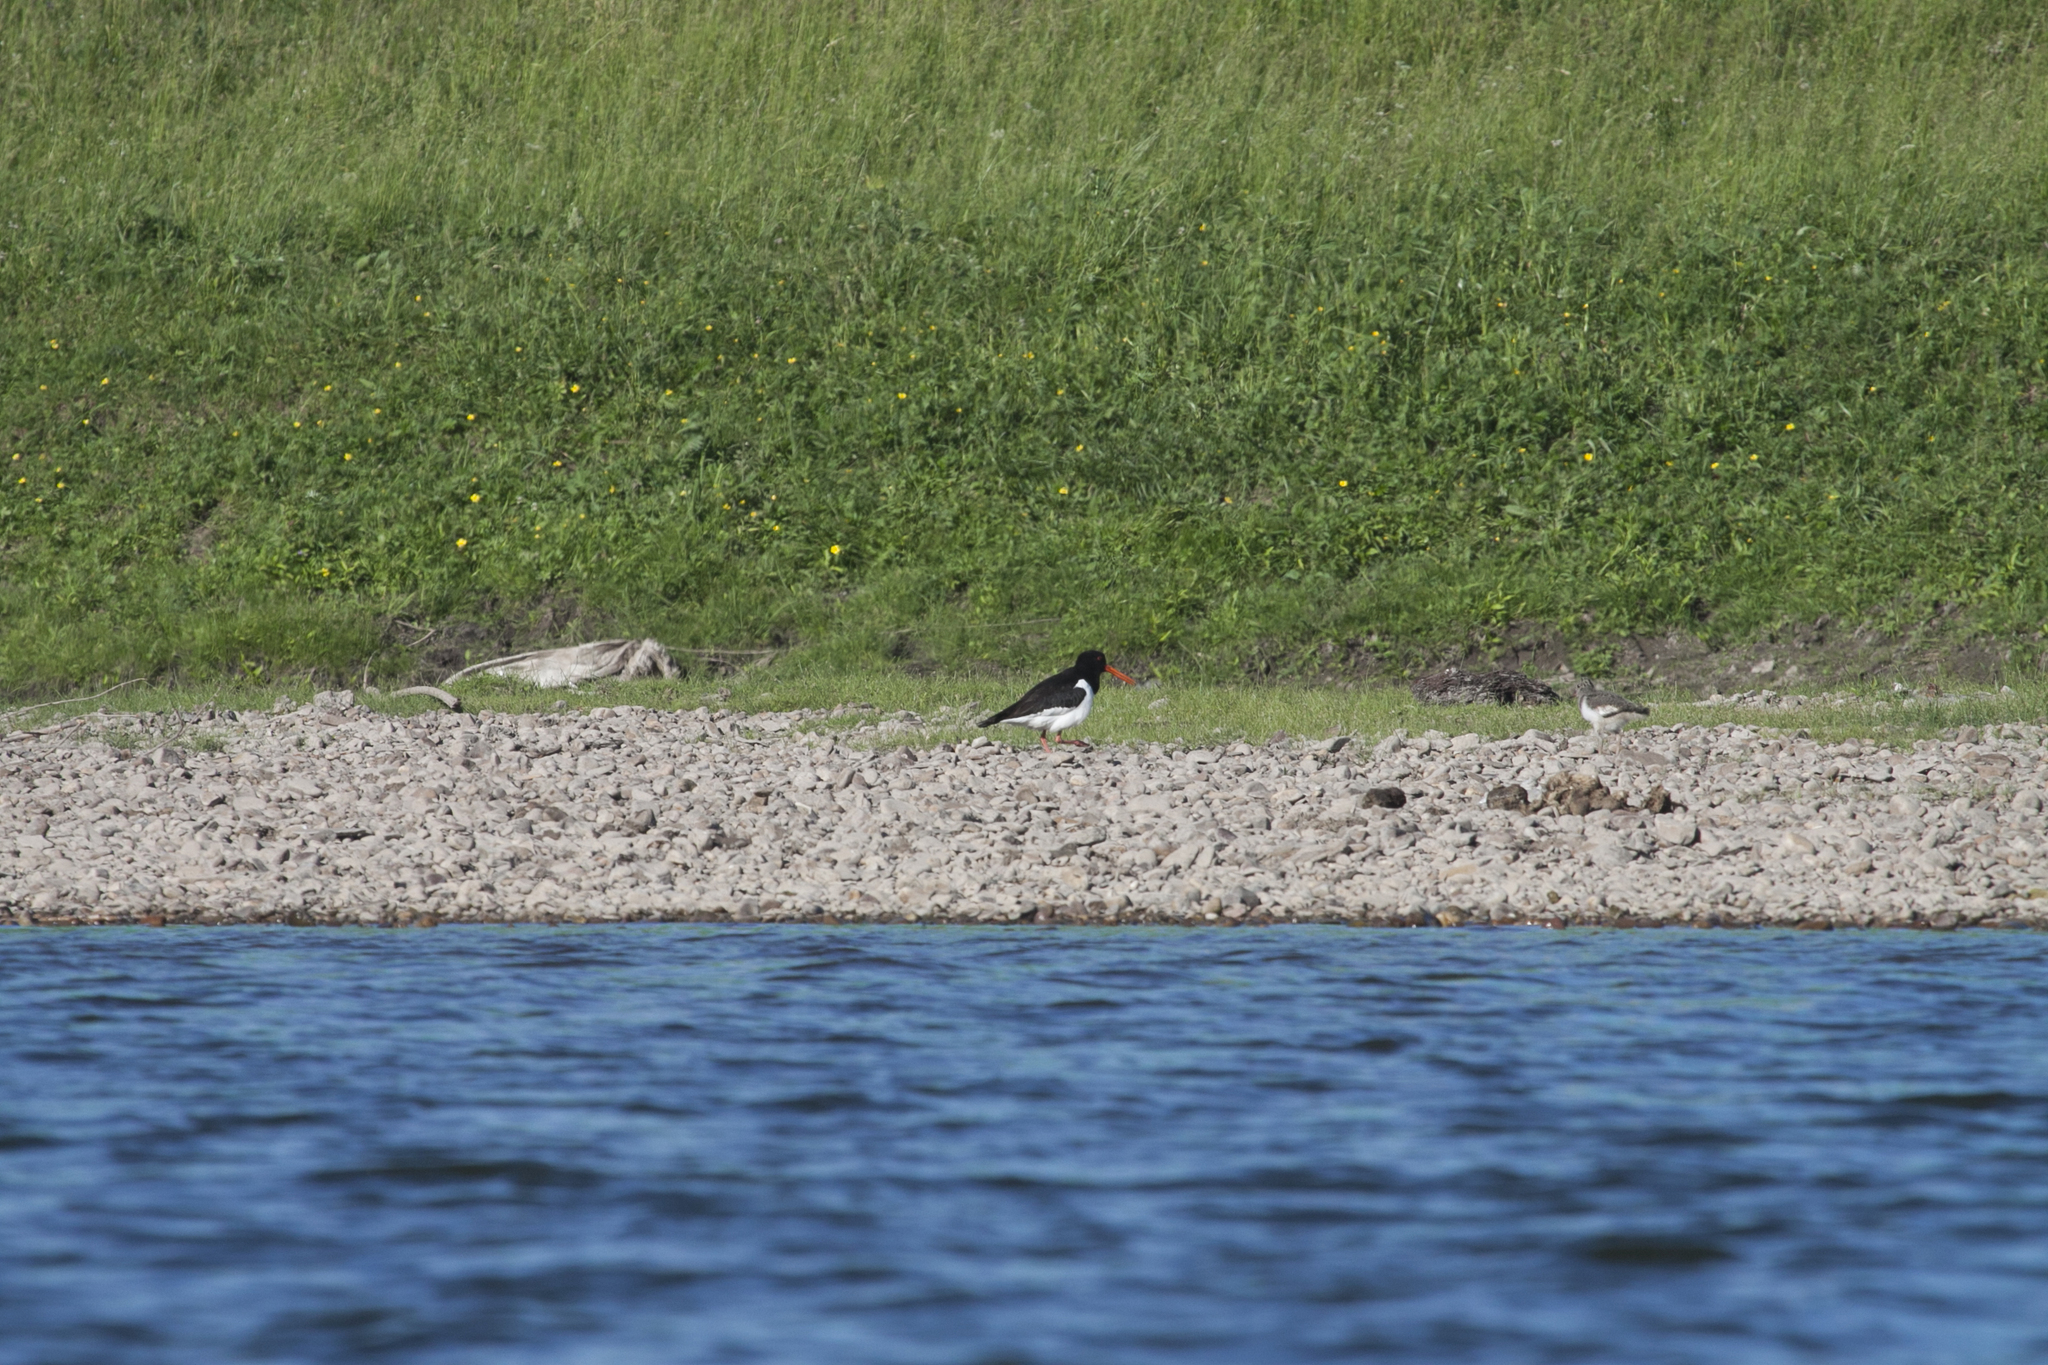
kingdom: Animalia
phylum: Chordata
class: Aves
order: Charadriiformes
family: Haematopodidae
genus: Haematopus
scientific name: Haematopus ostralegus
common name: Eurasian oystercatcher
